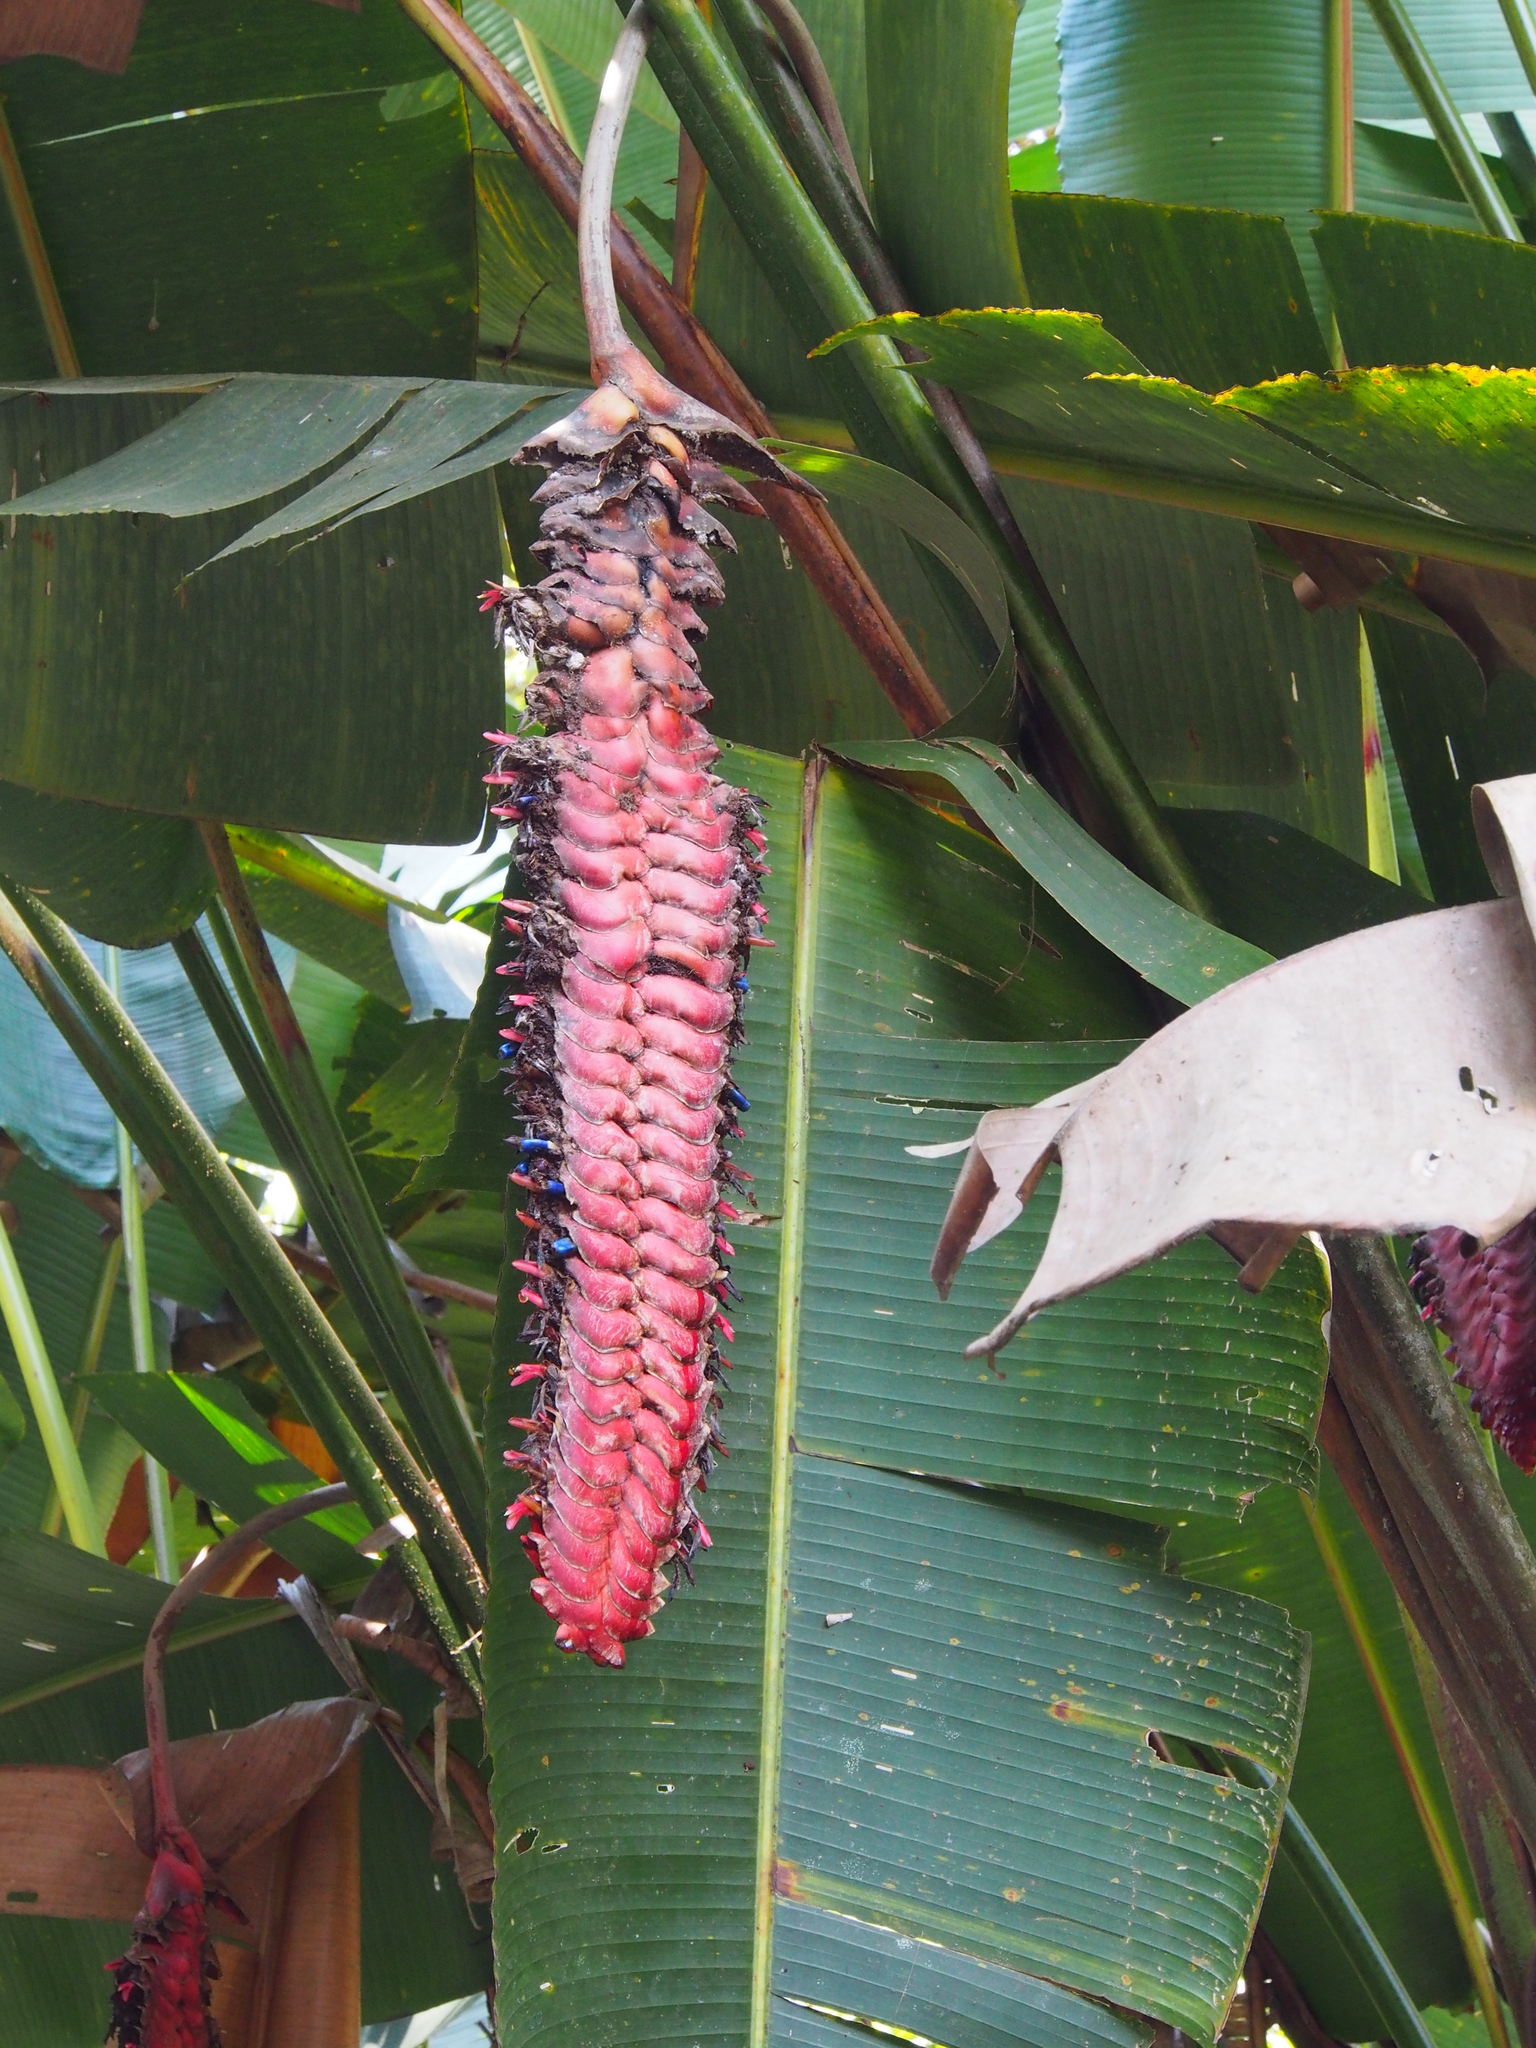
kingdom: Plantae
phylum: Tracheophyta
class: Liliopsida
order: Zingiberales
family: Heliconiaceae
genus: Heliconia
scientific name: Heliconia mariae
